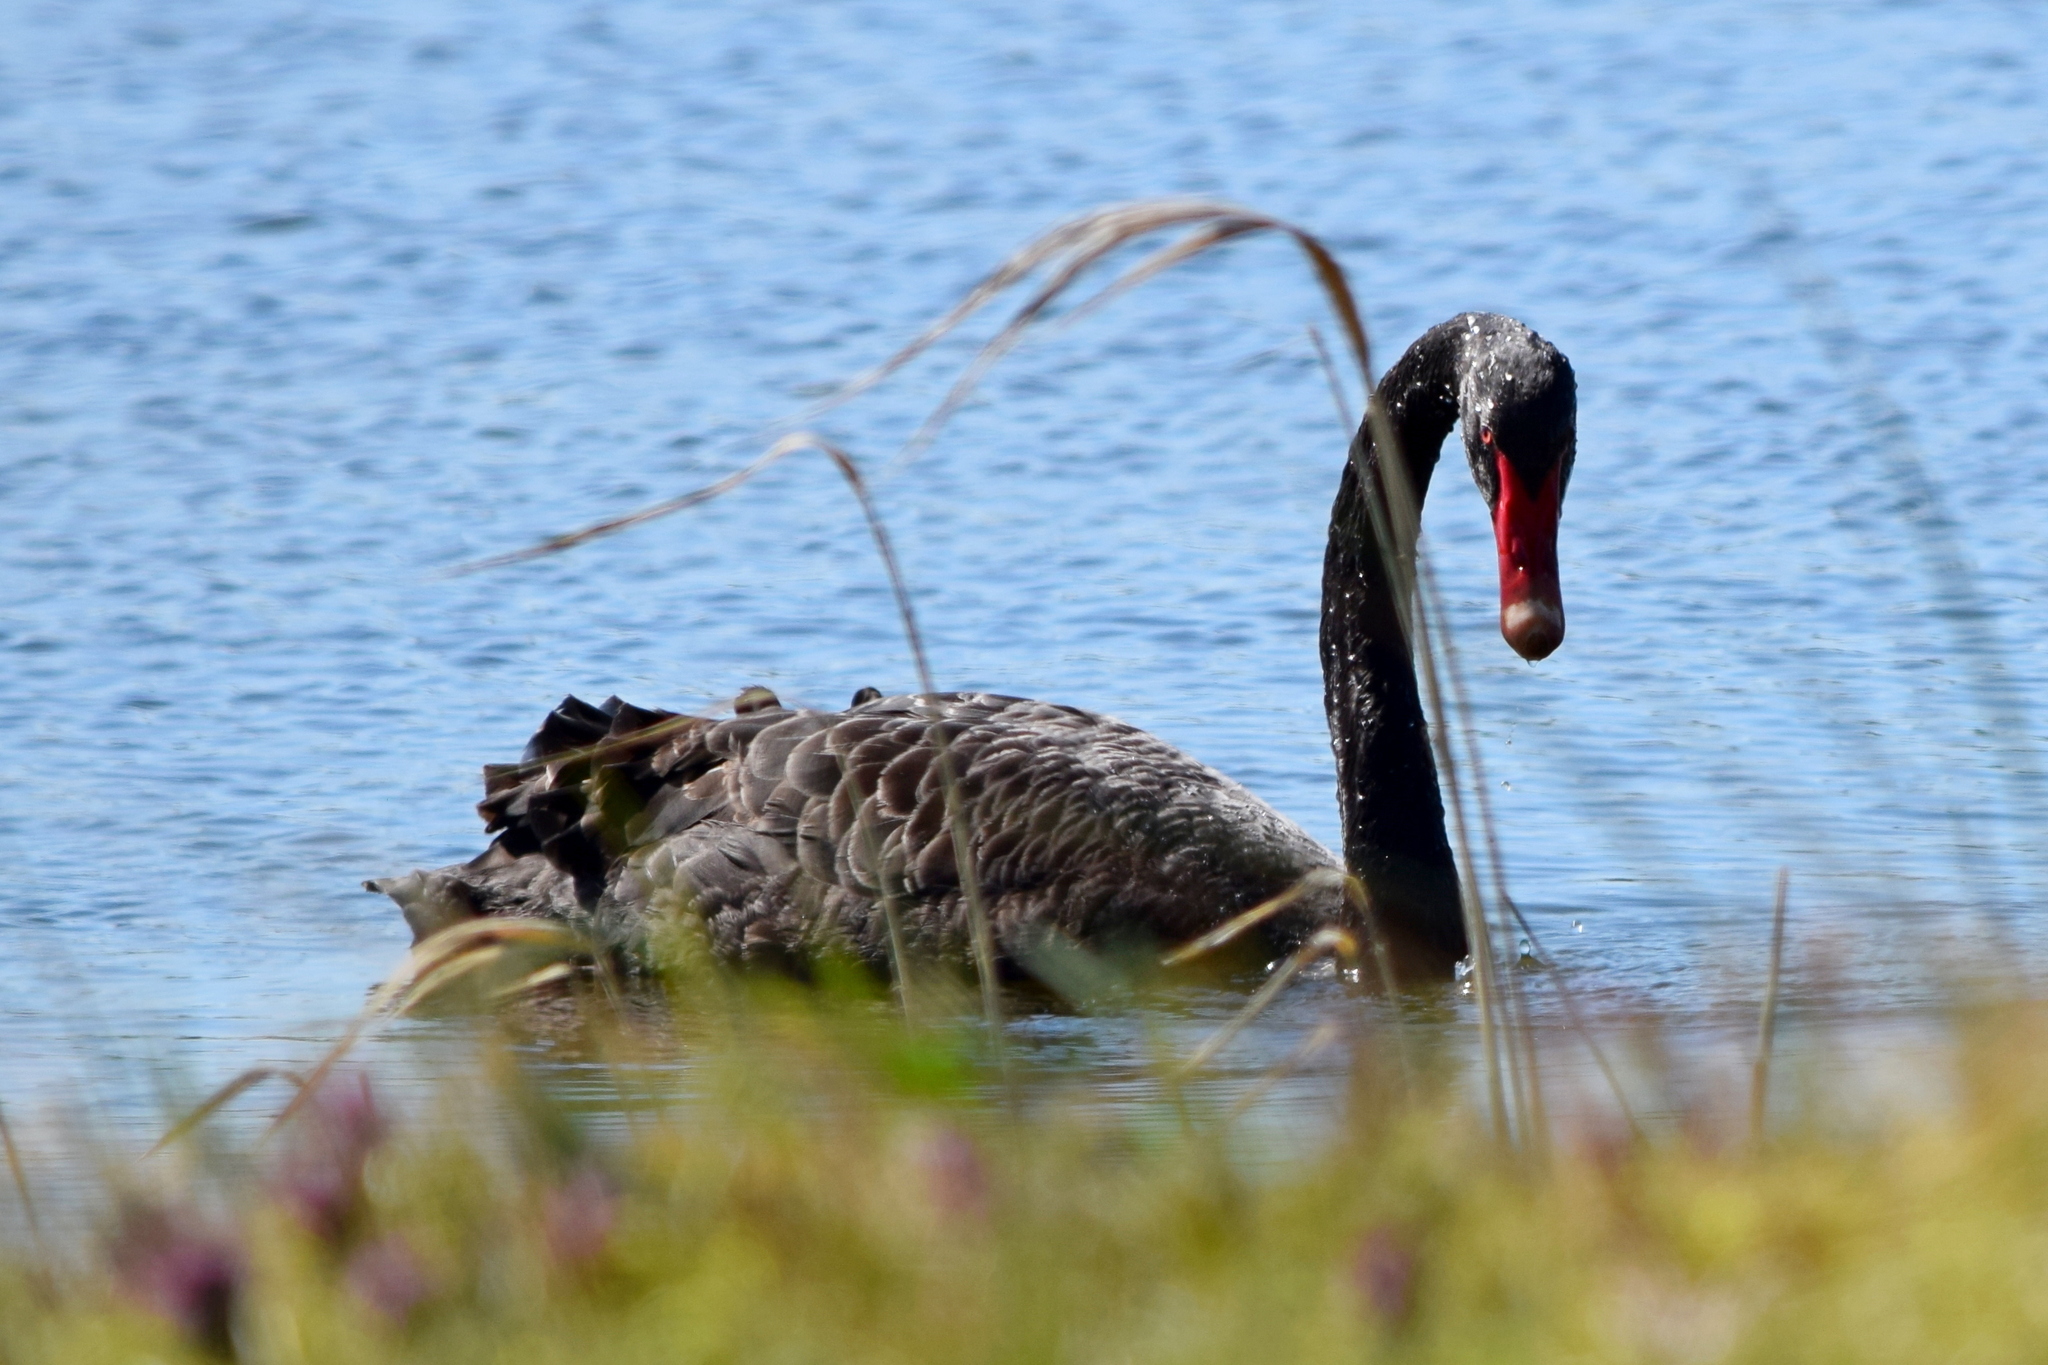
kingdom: Animalia
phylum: Chordata
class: Aves
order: Anseriformes
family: Anatidae
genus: Cygnus
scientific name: Cygnus atratus
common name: Black swan
